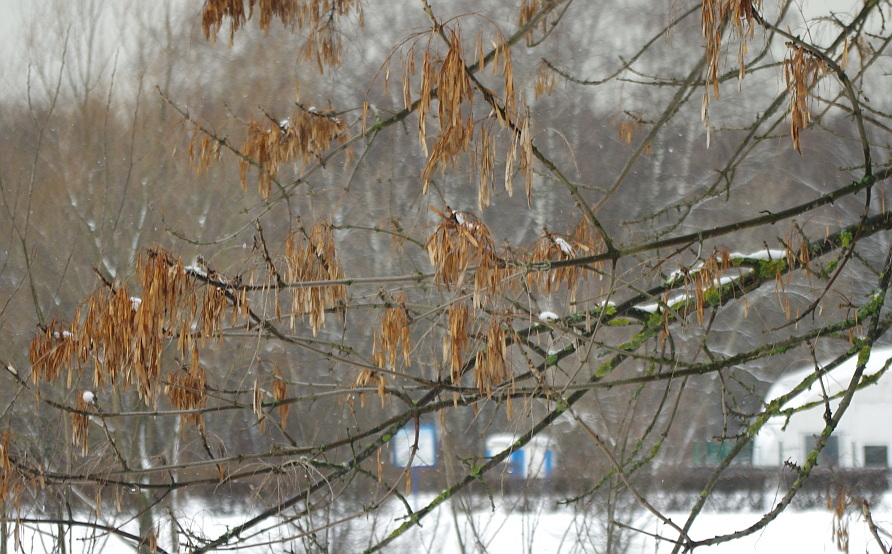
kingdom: Plantae
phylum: Tracheophyta
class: Magnoliopsida
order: Lamiales
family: Oleaceae
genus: Fraxinus
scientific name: Fraxinus pennsylvanica
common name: Green ash
